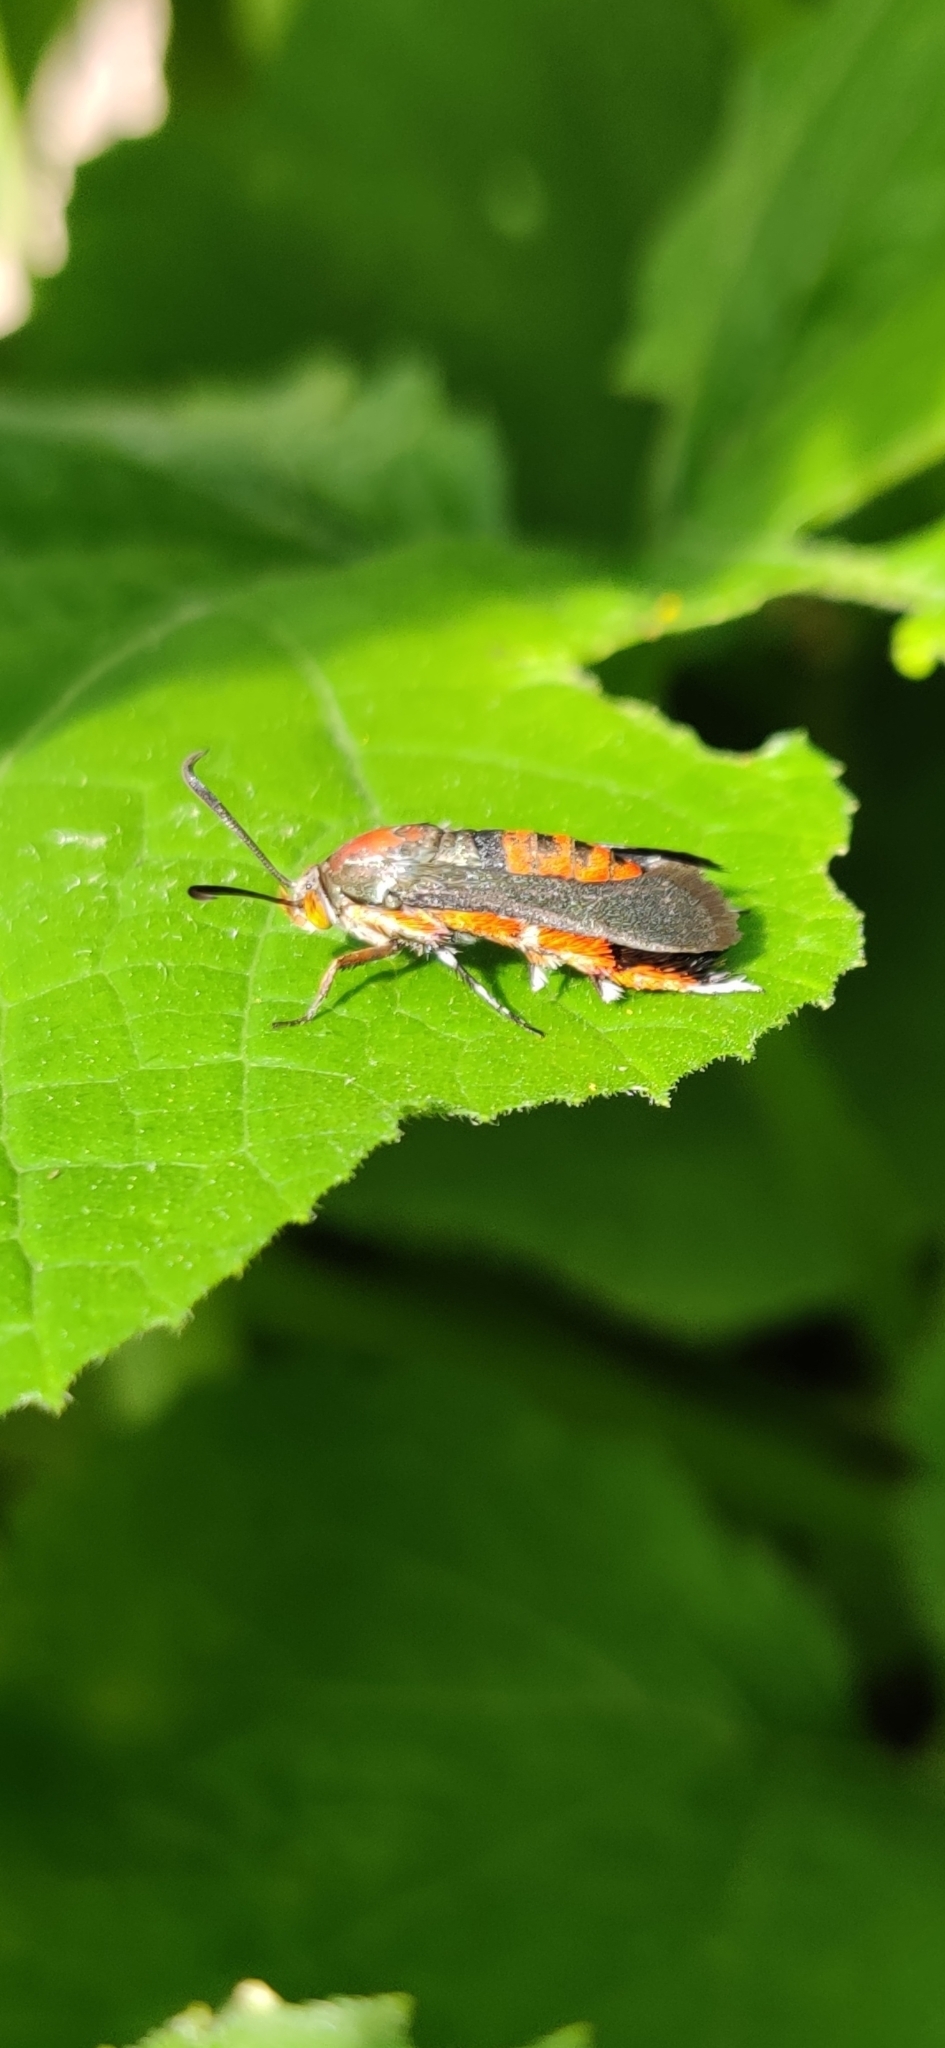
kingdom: Animalia
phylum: Arthropoda
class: Insecta
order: Lepidoptera
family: Sesiidae
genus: Eichlinia
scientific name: Eichlinia cucurbitae
